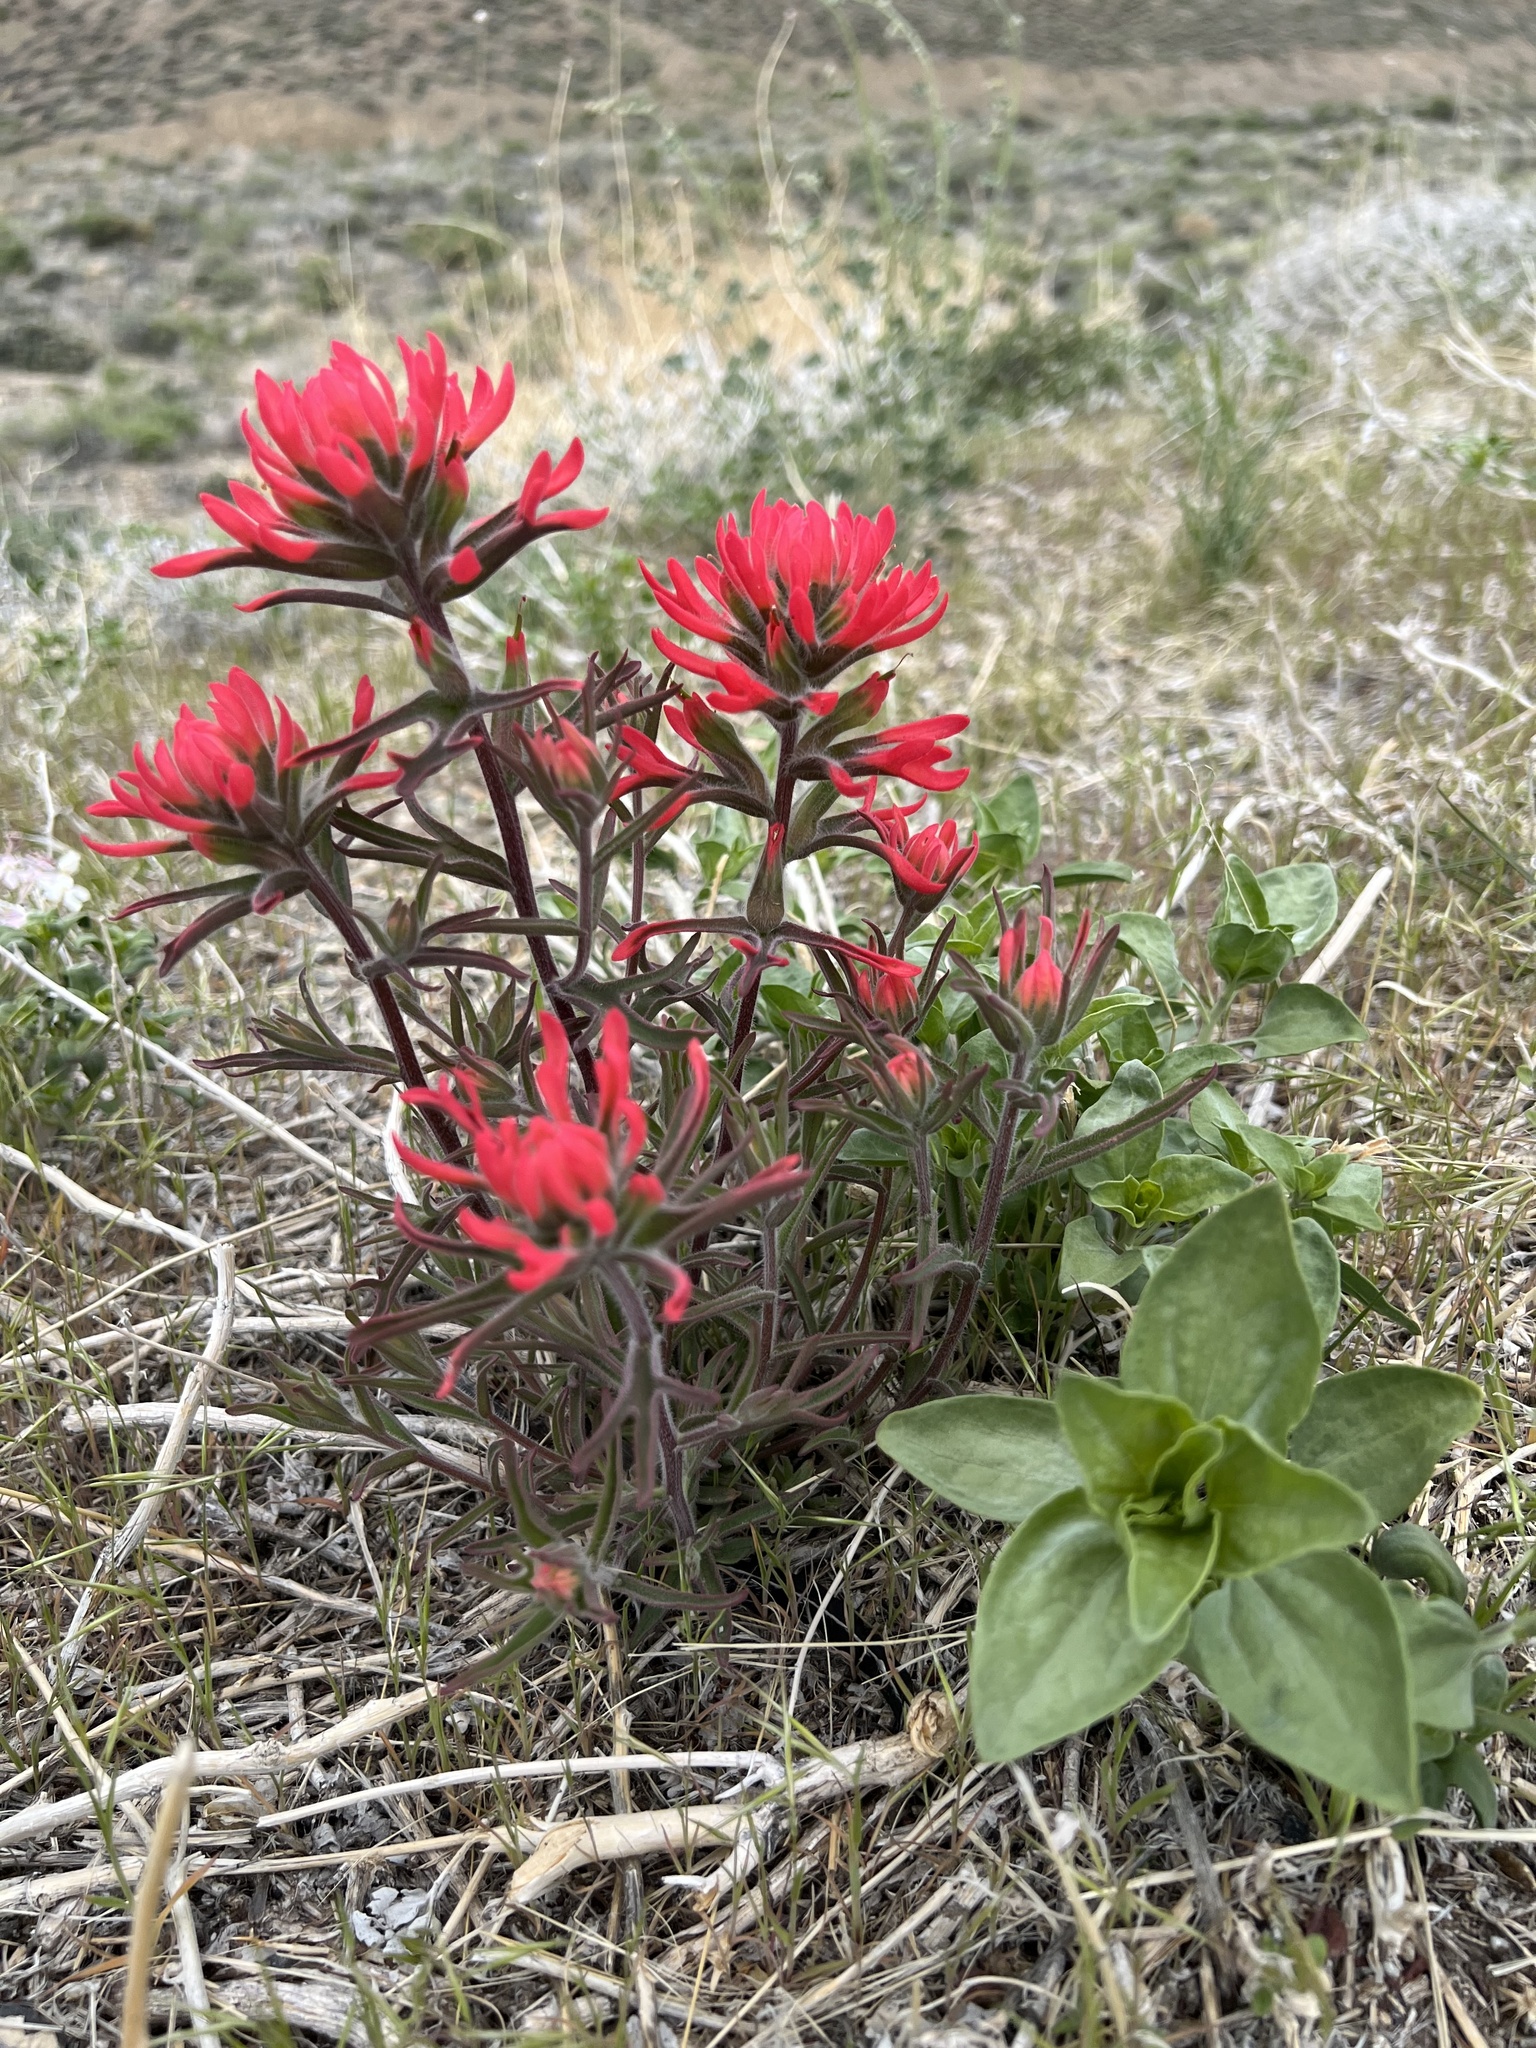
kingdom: Plantae
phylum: Tracheophyta
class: Magnoliopsida
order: Lamiales
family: Orobanchaceae
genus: Castilleja
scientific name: Castilleja chromosa
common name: Desert paintbrush
